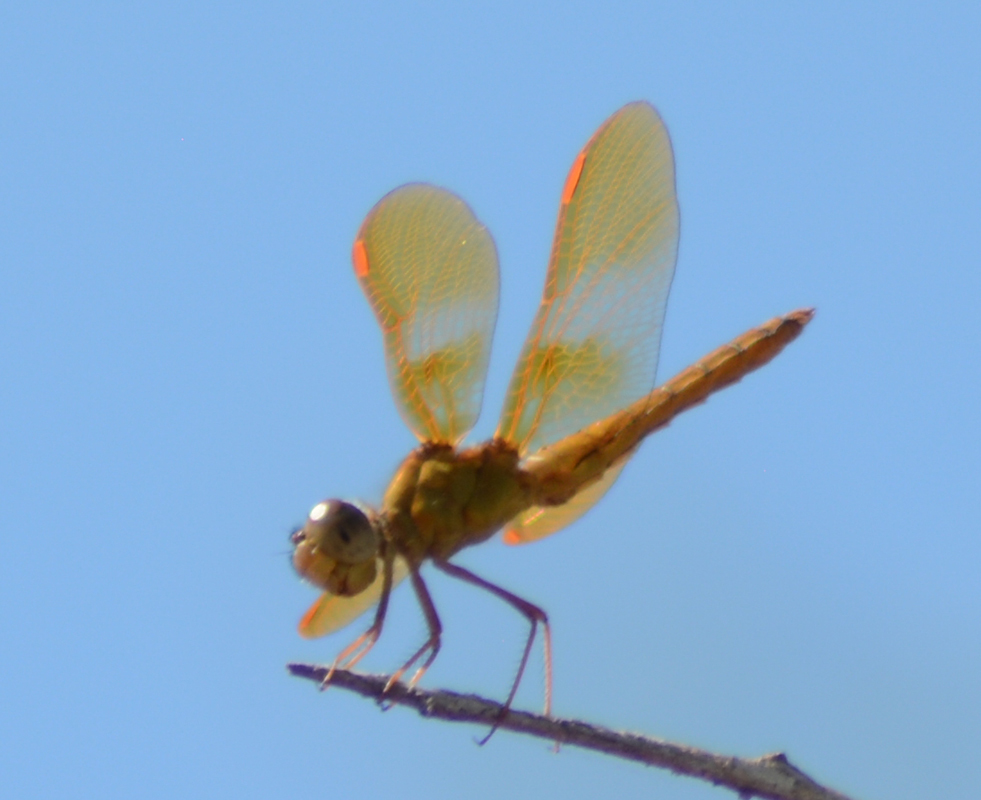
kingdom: Animalia
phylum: Arthropoda
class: Insecta
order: Odonata
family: Libellulidae
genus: Perithemis
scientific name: Perithemis intensa
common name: Mexican amberwing
